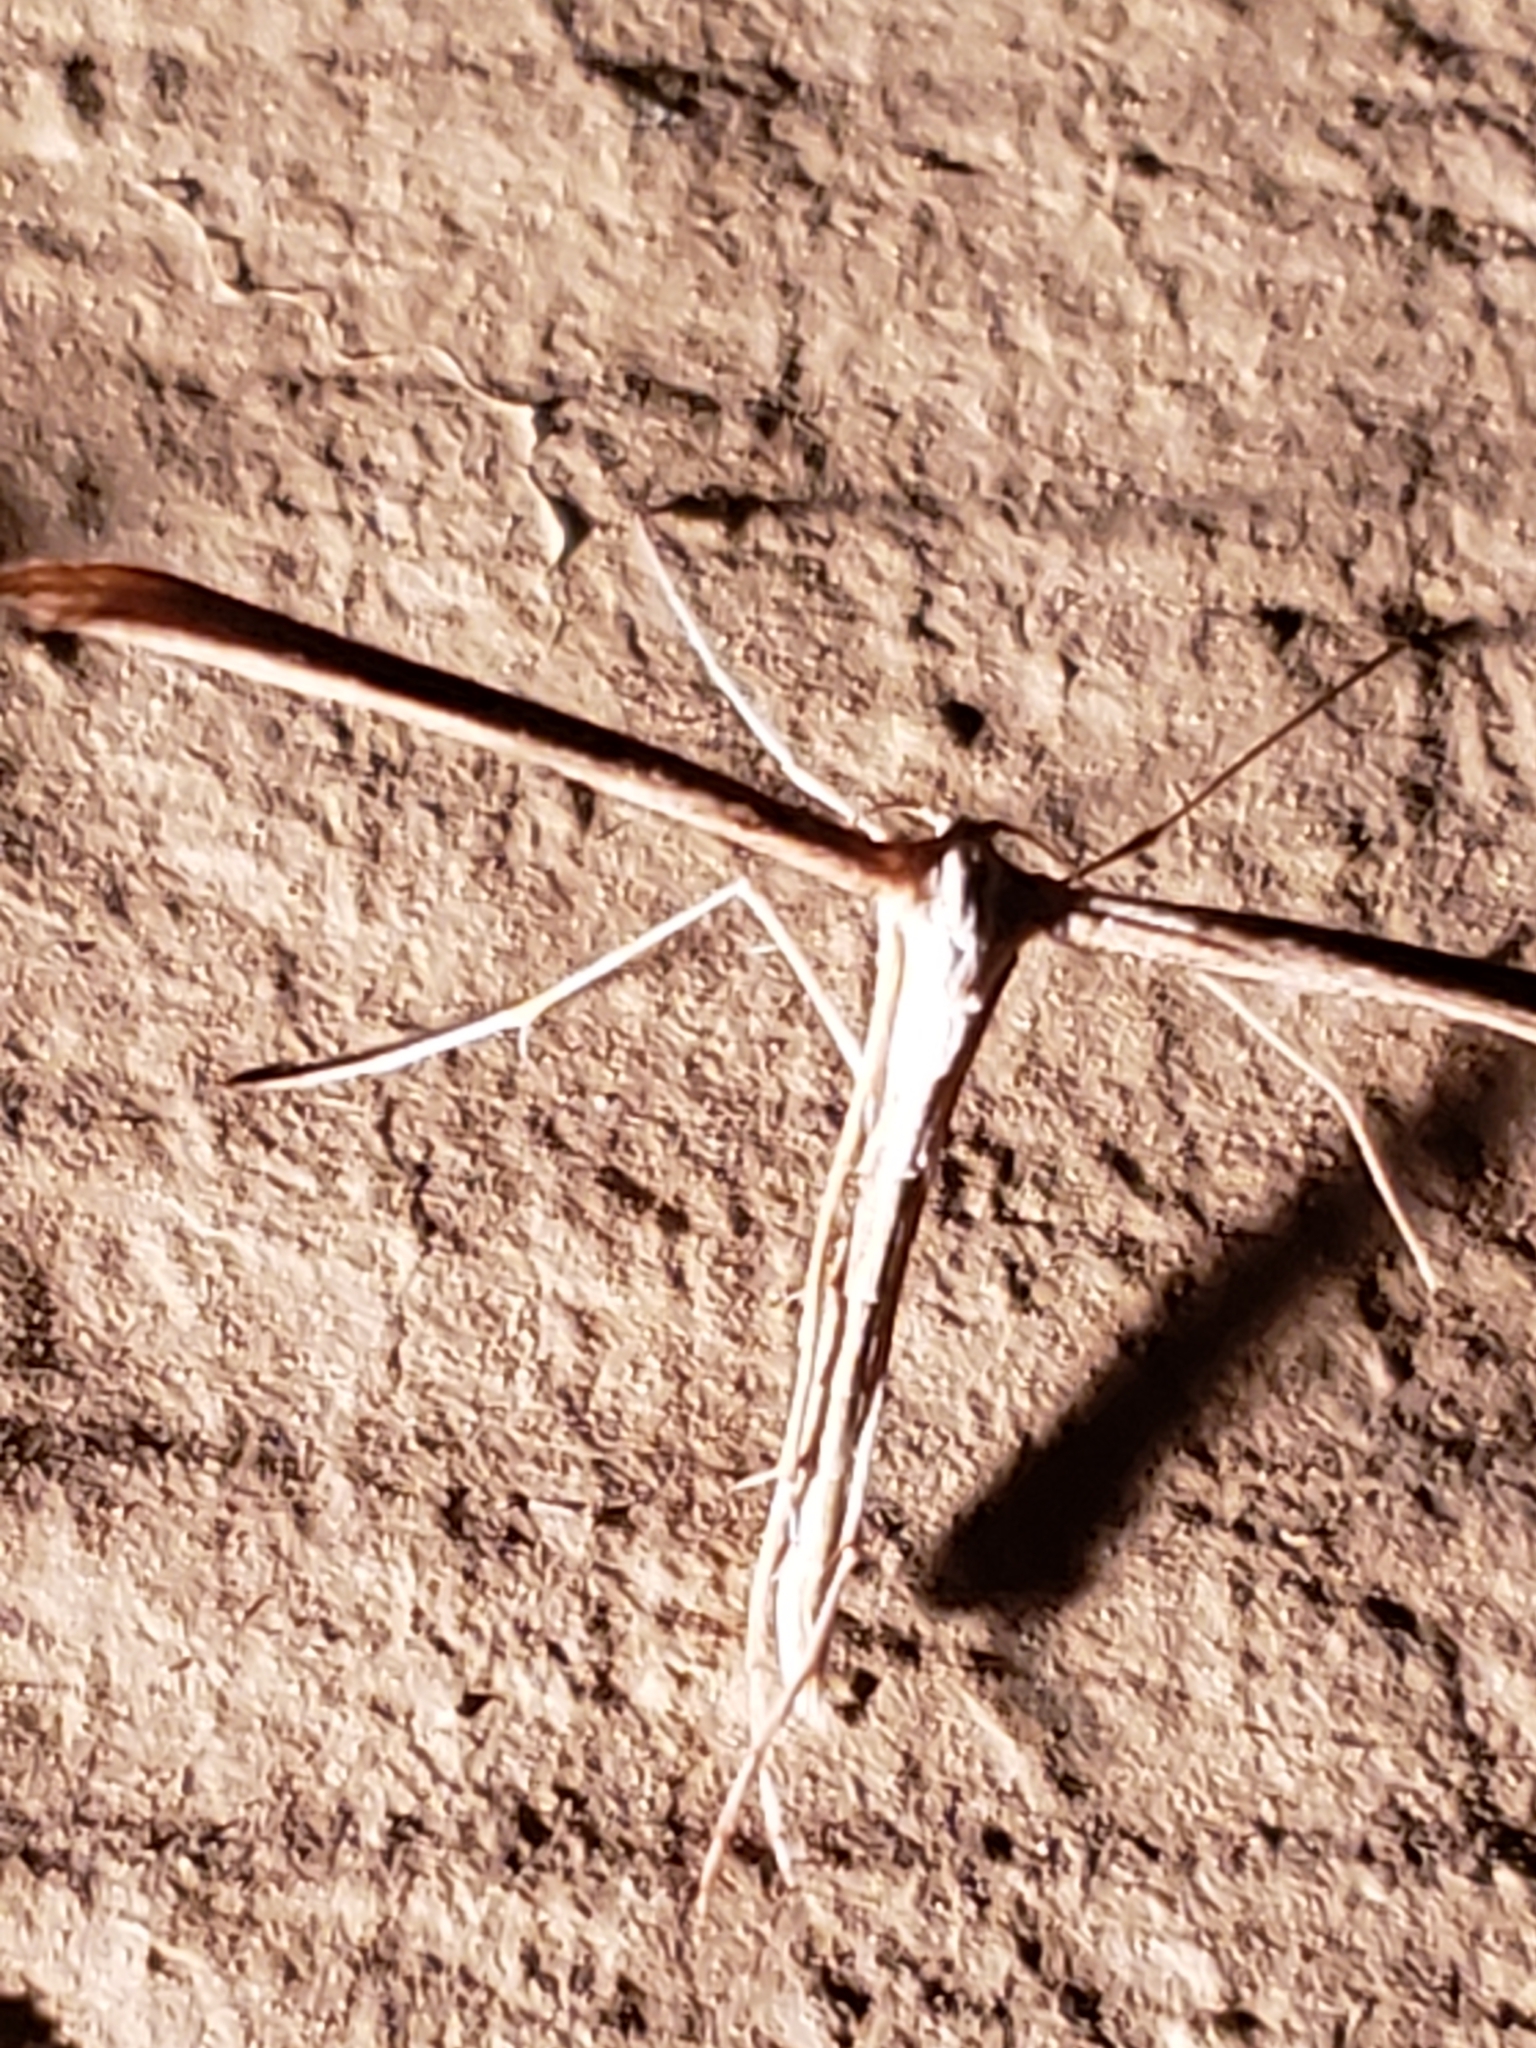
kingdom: Animalia
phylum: Arthropoda
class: Insecta
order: Lepidoptera
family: Pterophoridae
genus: Emmelina
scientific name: Emmelina monodactyla
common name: Common plume
